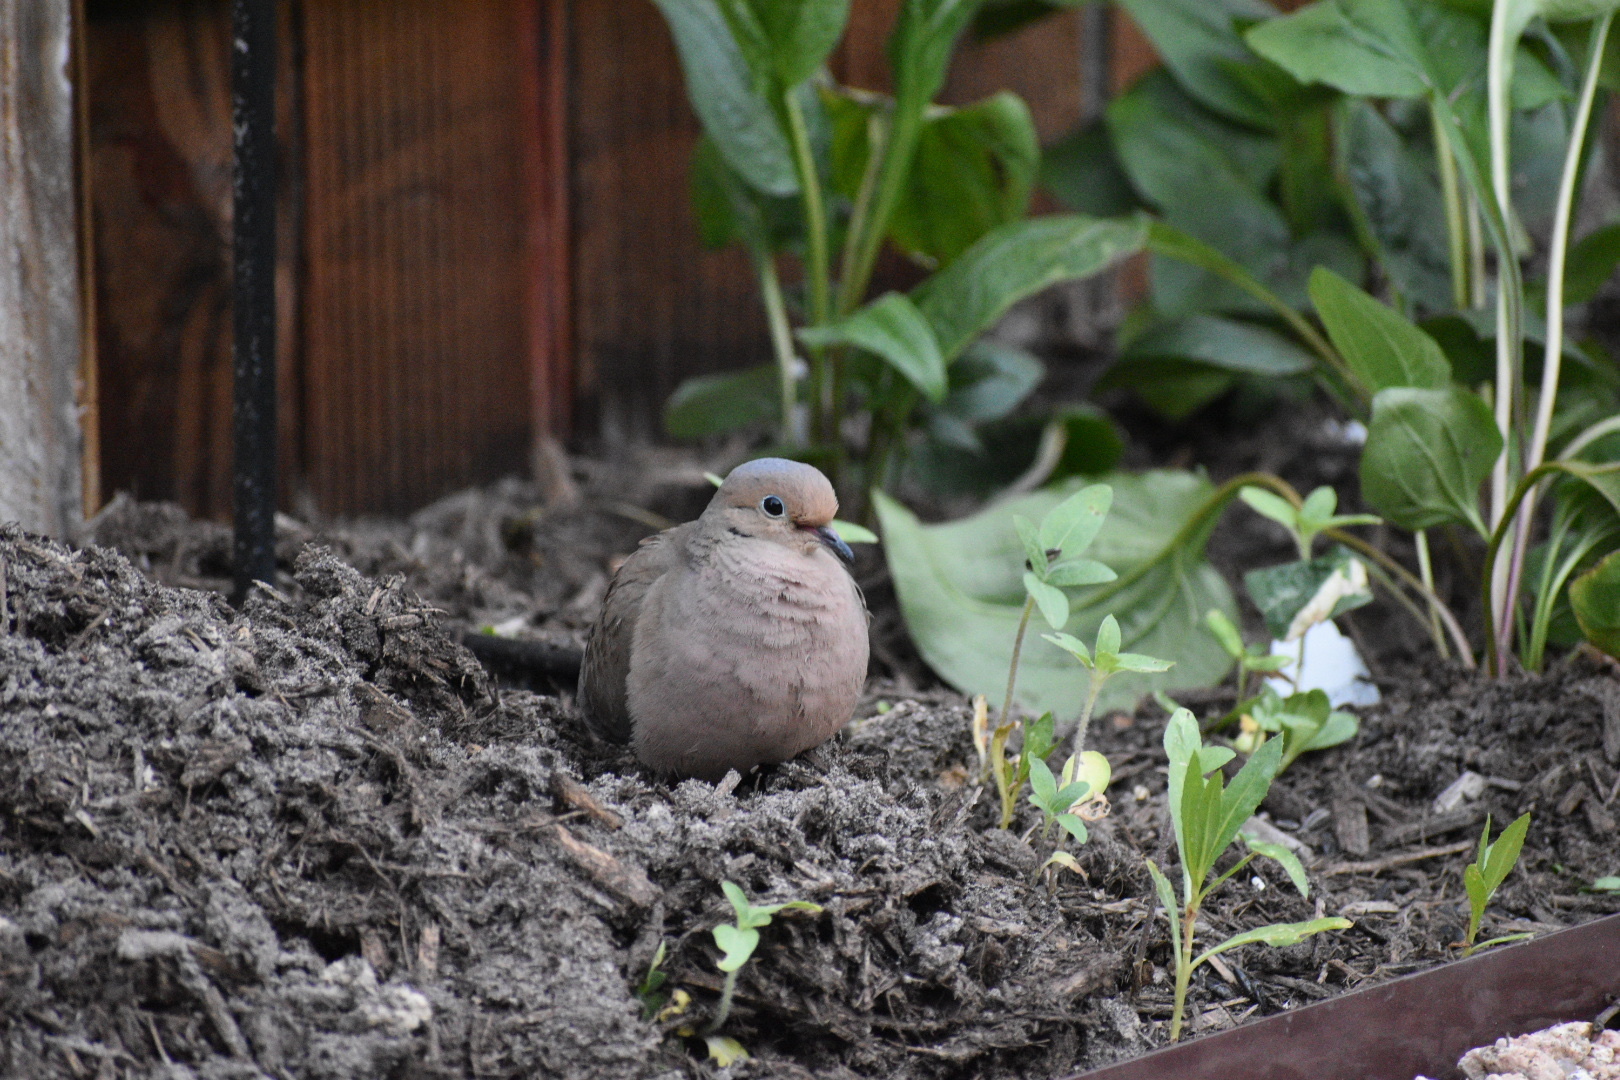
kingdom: Animalia
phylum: Chordata
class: Aves
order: Columbiformes
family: Columbidae
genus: Zenaida
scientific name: Zenaida macroura
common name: Mourning dove
